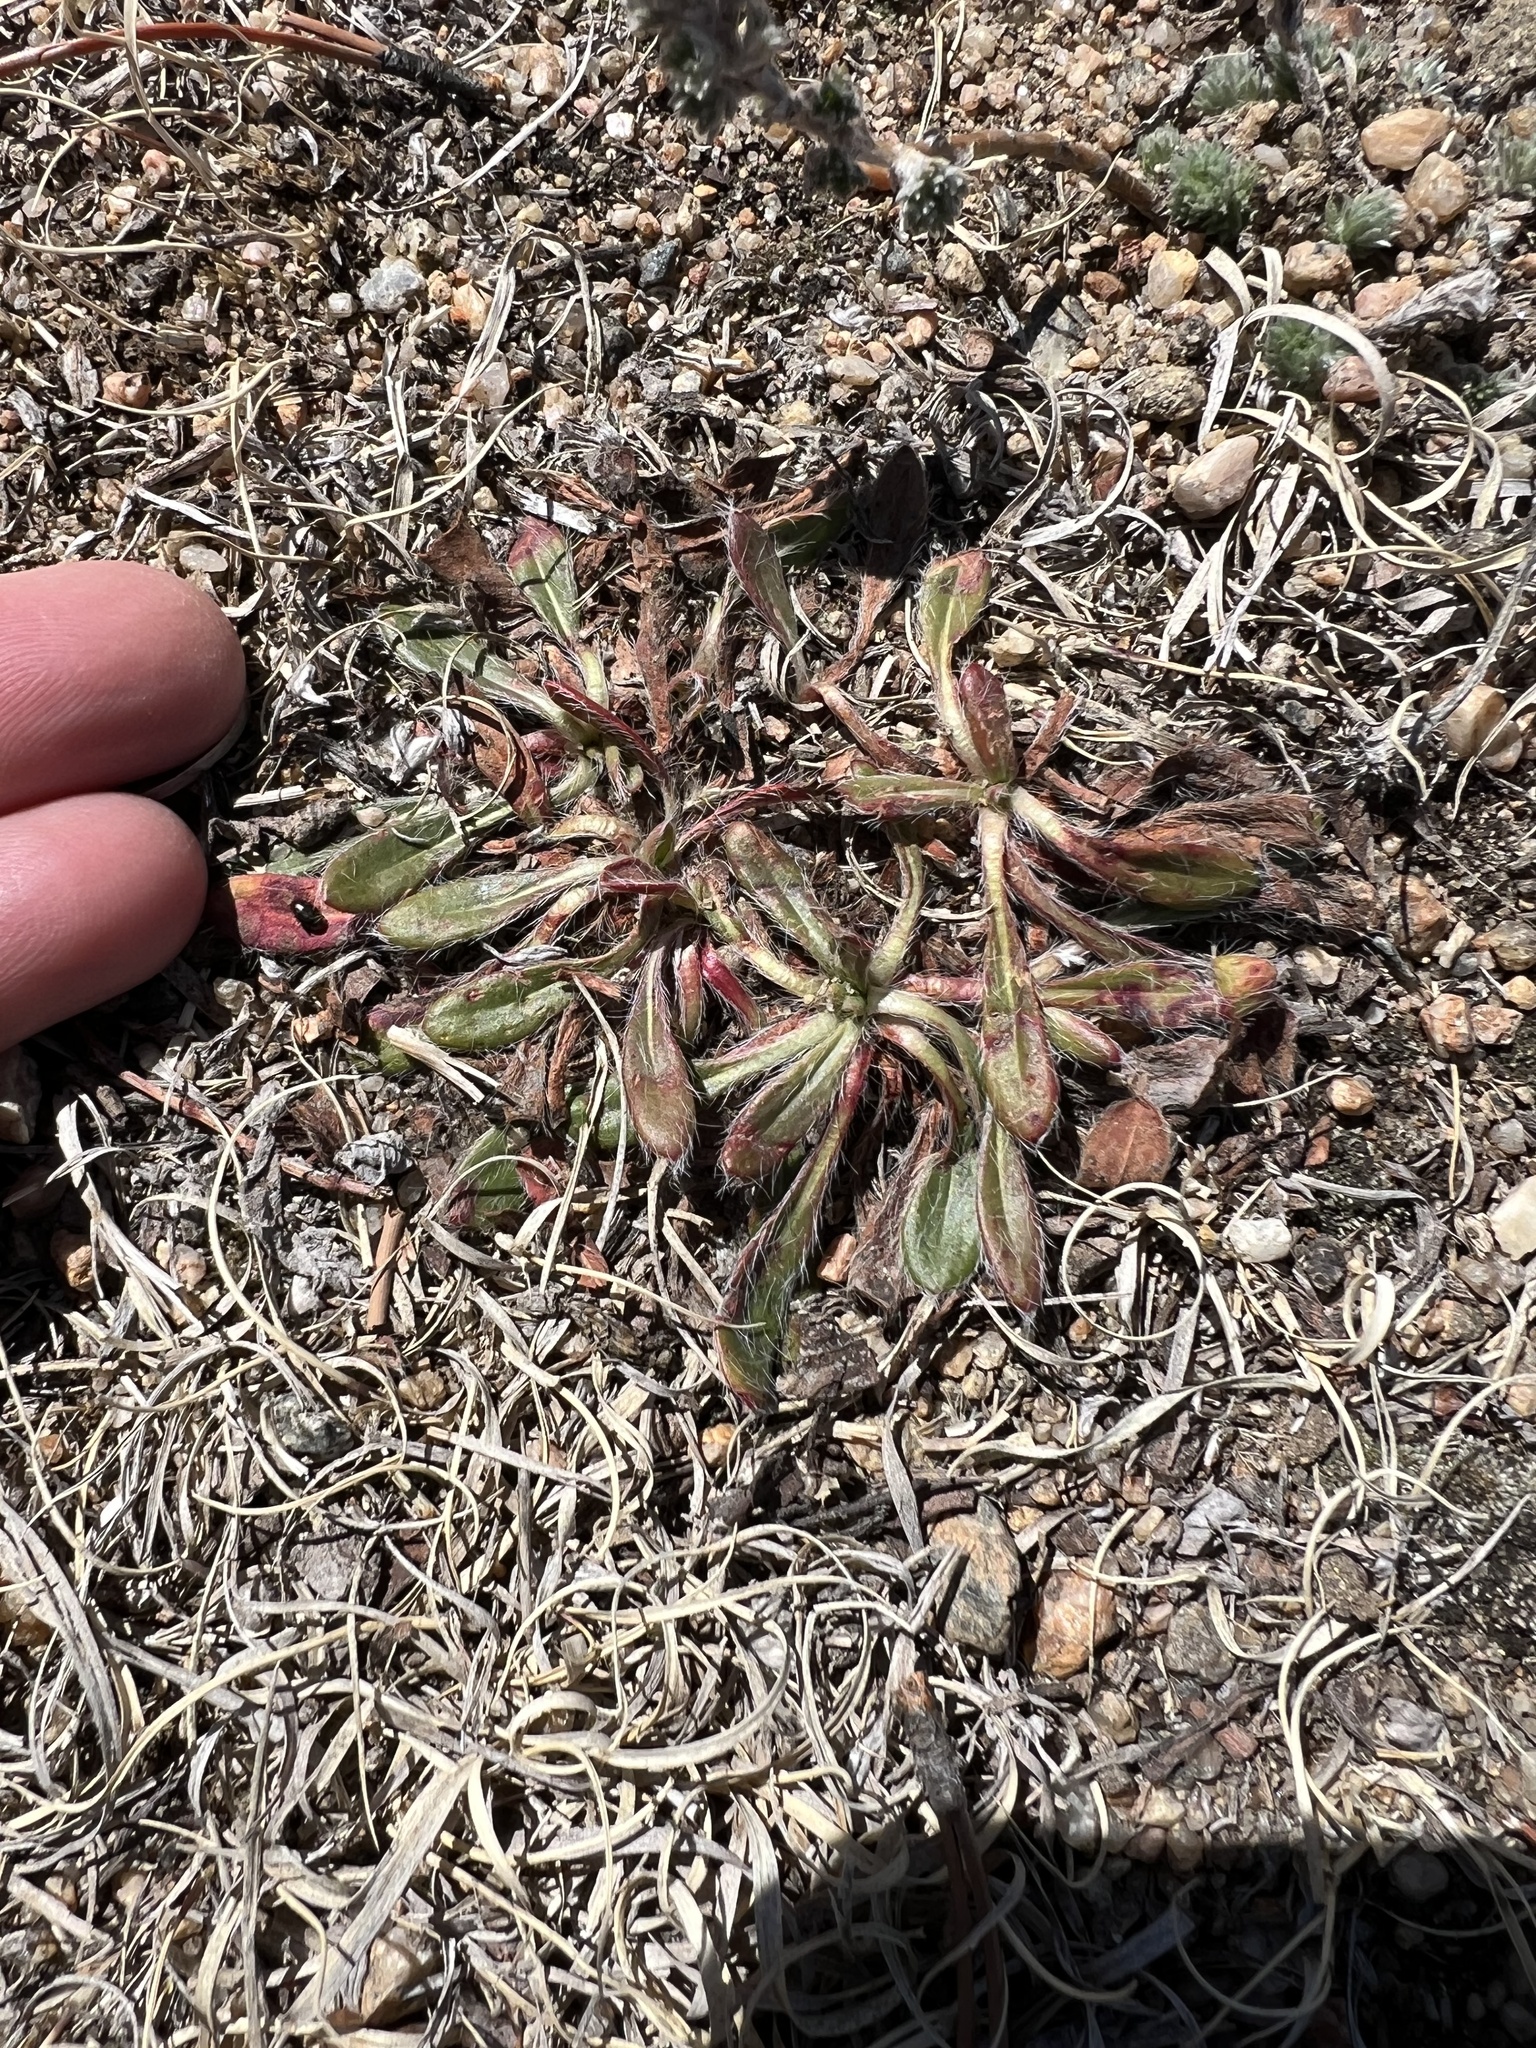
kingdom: Plantae
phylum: Tracheophyta
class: Magnoliopsida
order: Caryophyllales
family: Polygonaceae
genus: Eriogonum
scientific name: Eriogonum alatum
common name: Winged eriogonum
